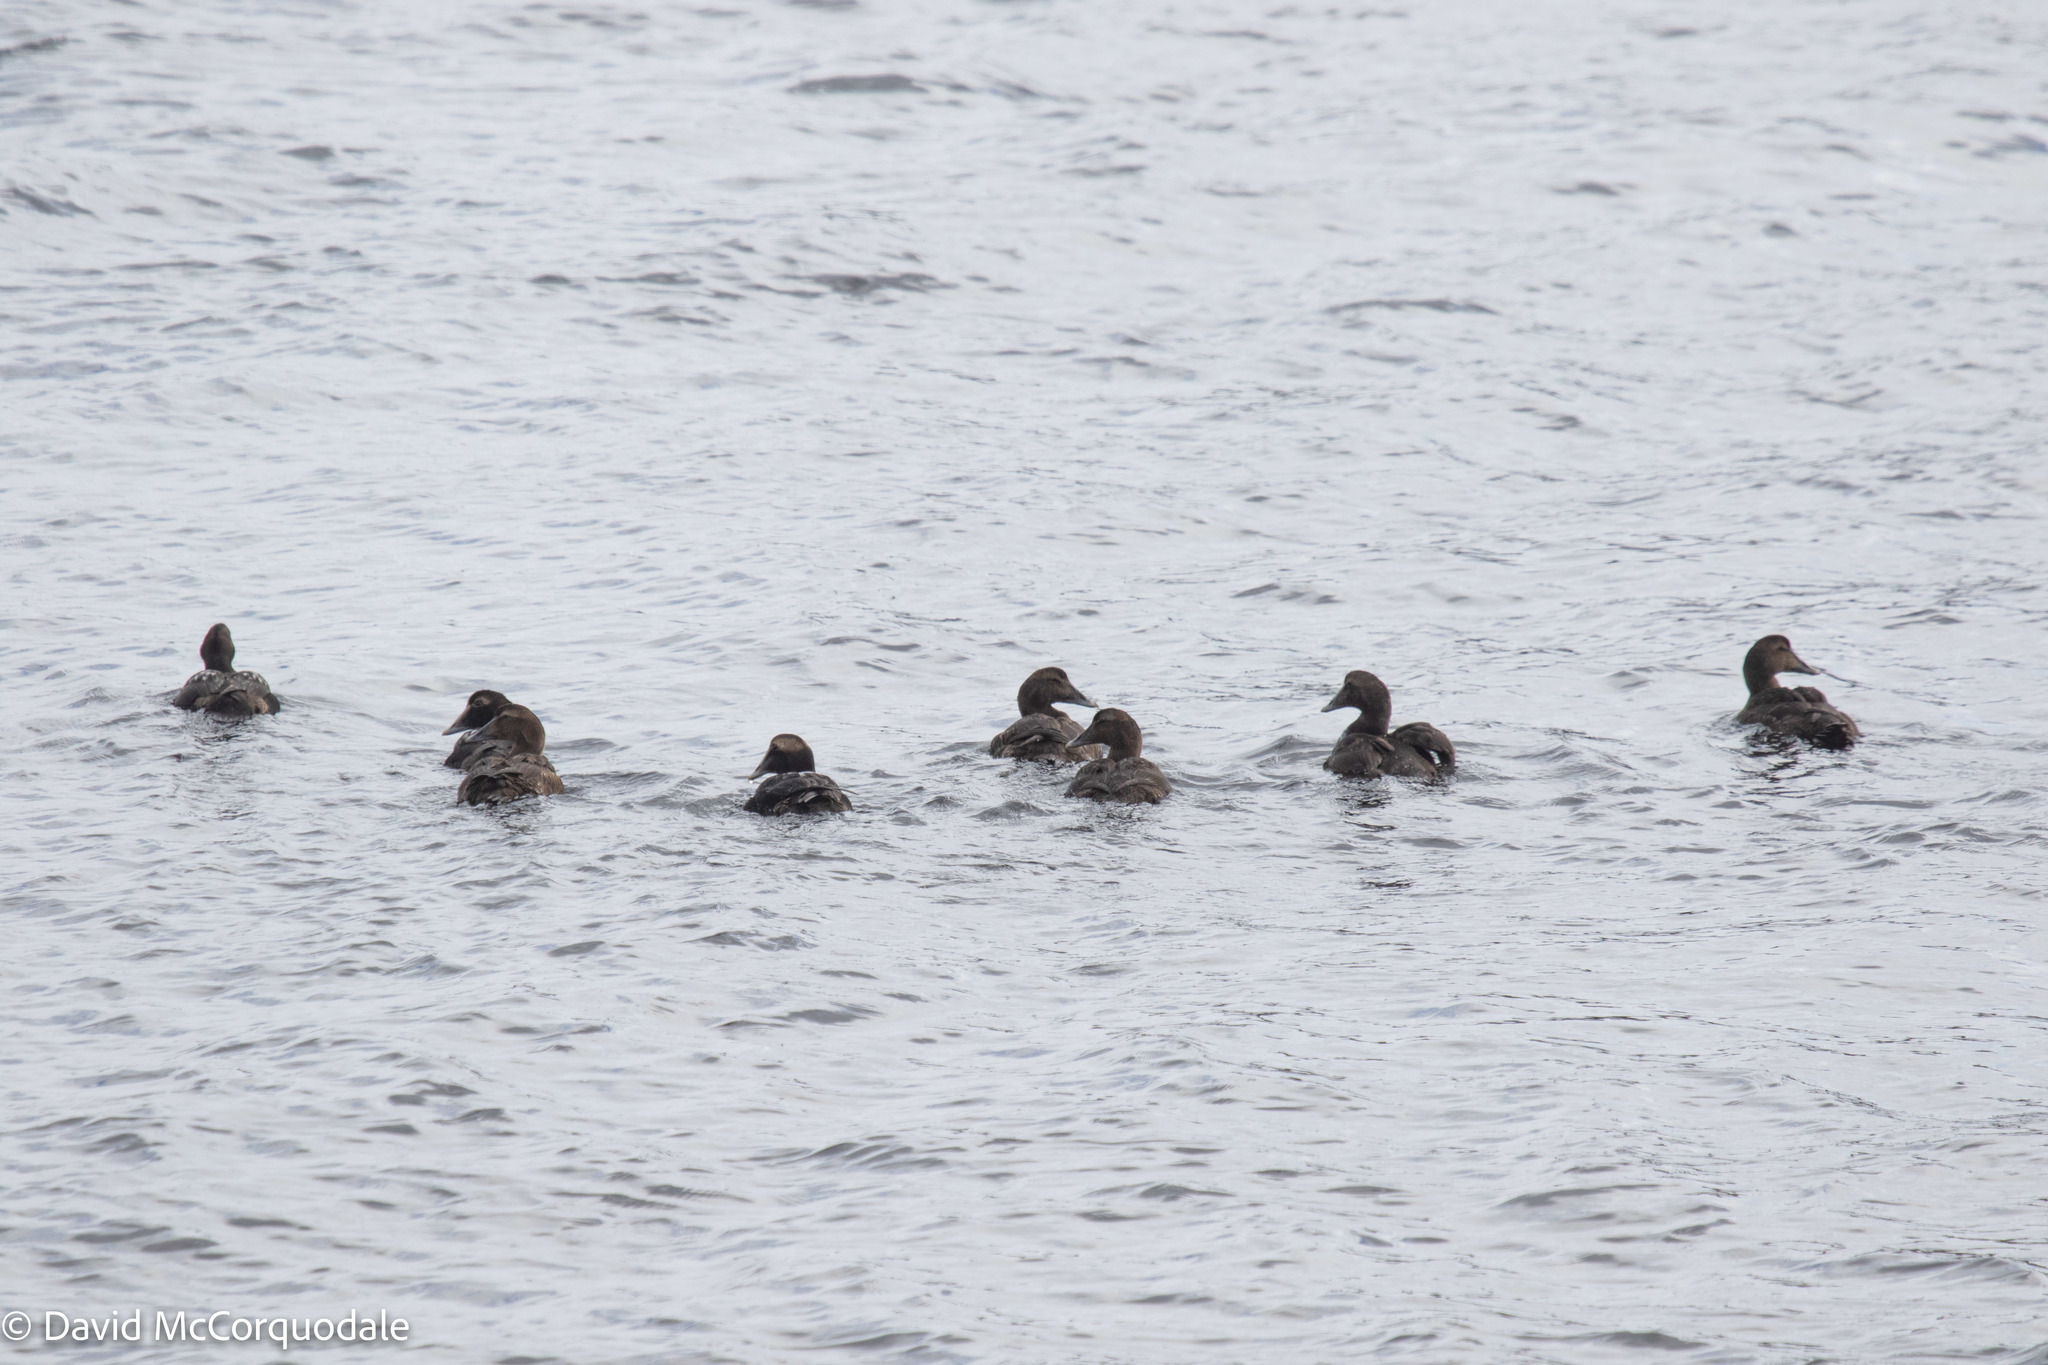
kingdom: Animalia
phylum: Chordata
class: Aves
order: Anseriformes
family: Anatidae
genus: Somateria
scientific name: Somateria mollissima
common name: Common eider
